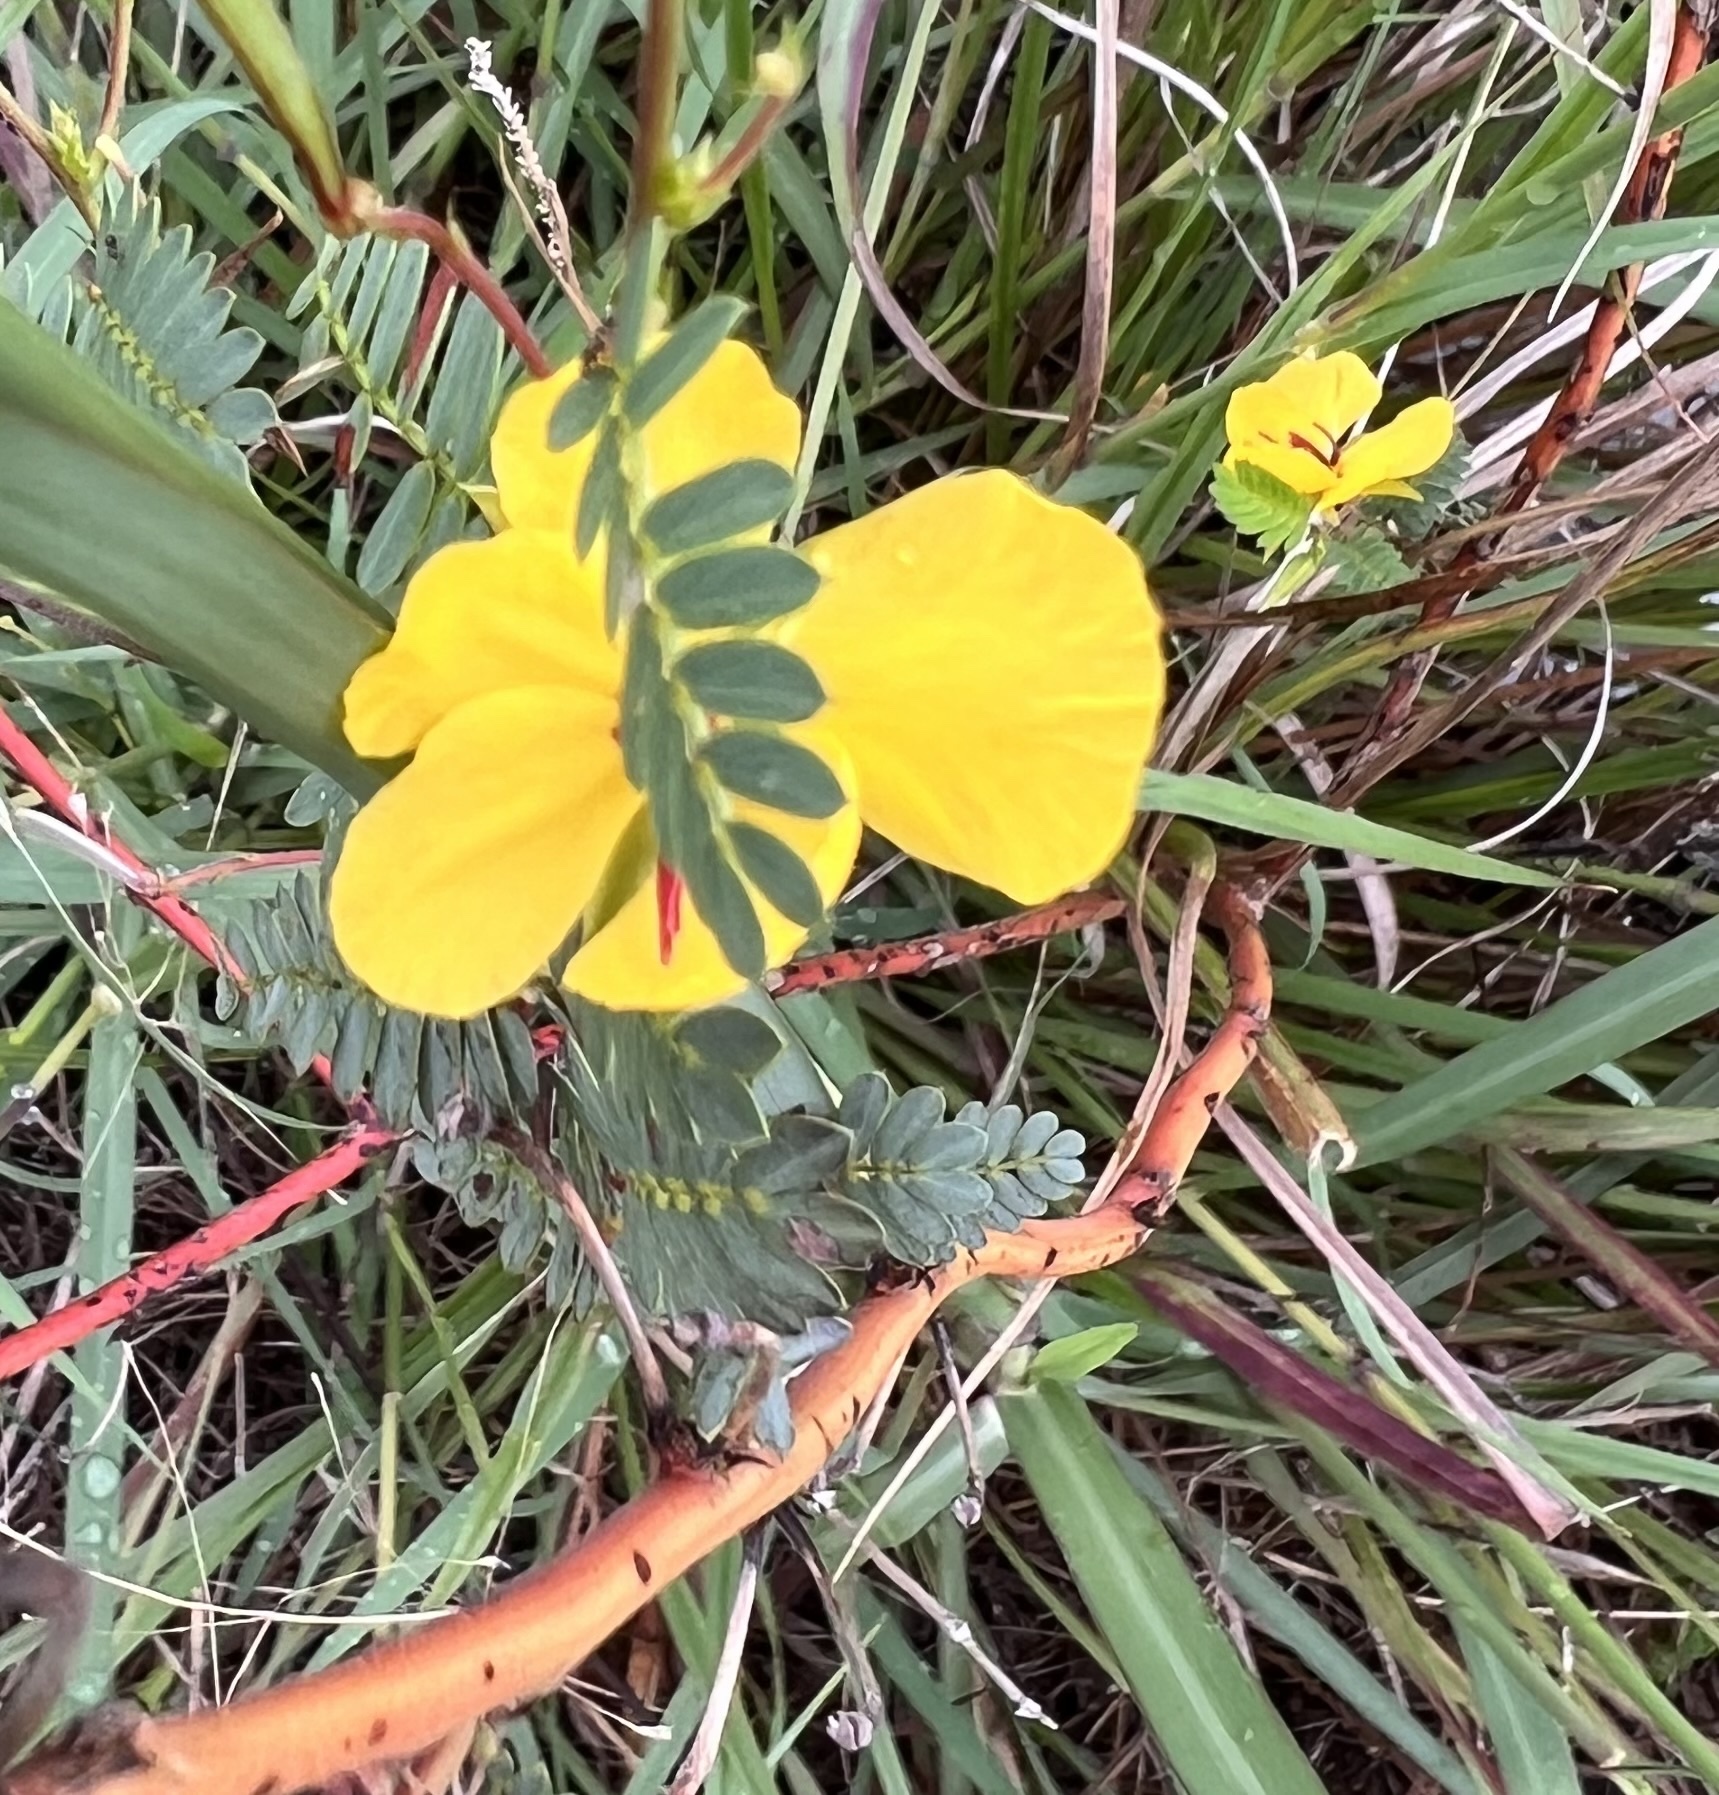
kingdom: Plantae
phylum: Tracheophyta
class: Magnoliopsida
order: Fabales
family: Fabaceae
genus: Chamaecrista
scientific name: Chamaecrista fasciculata
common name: Golden cassia
